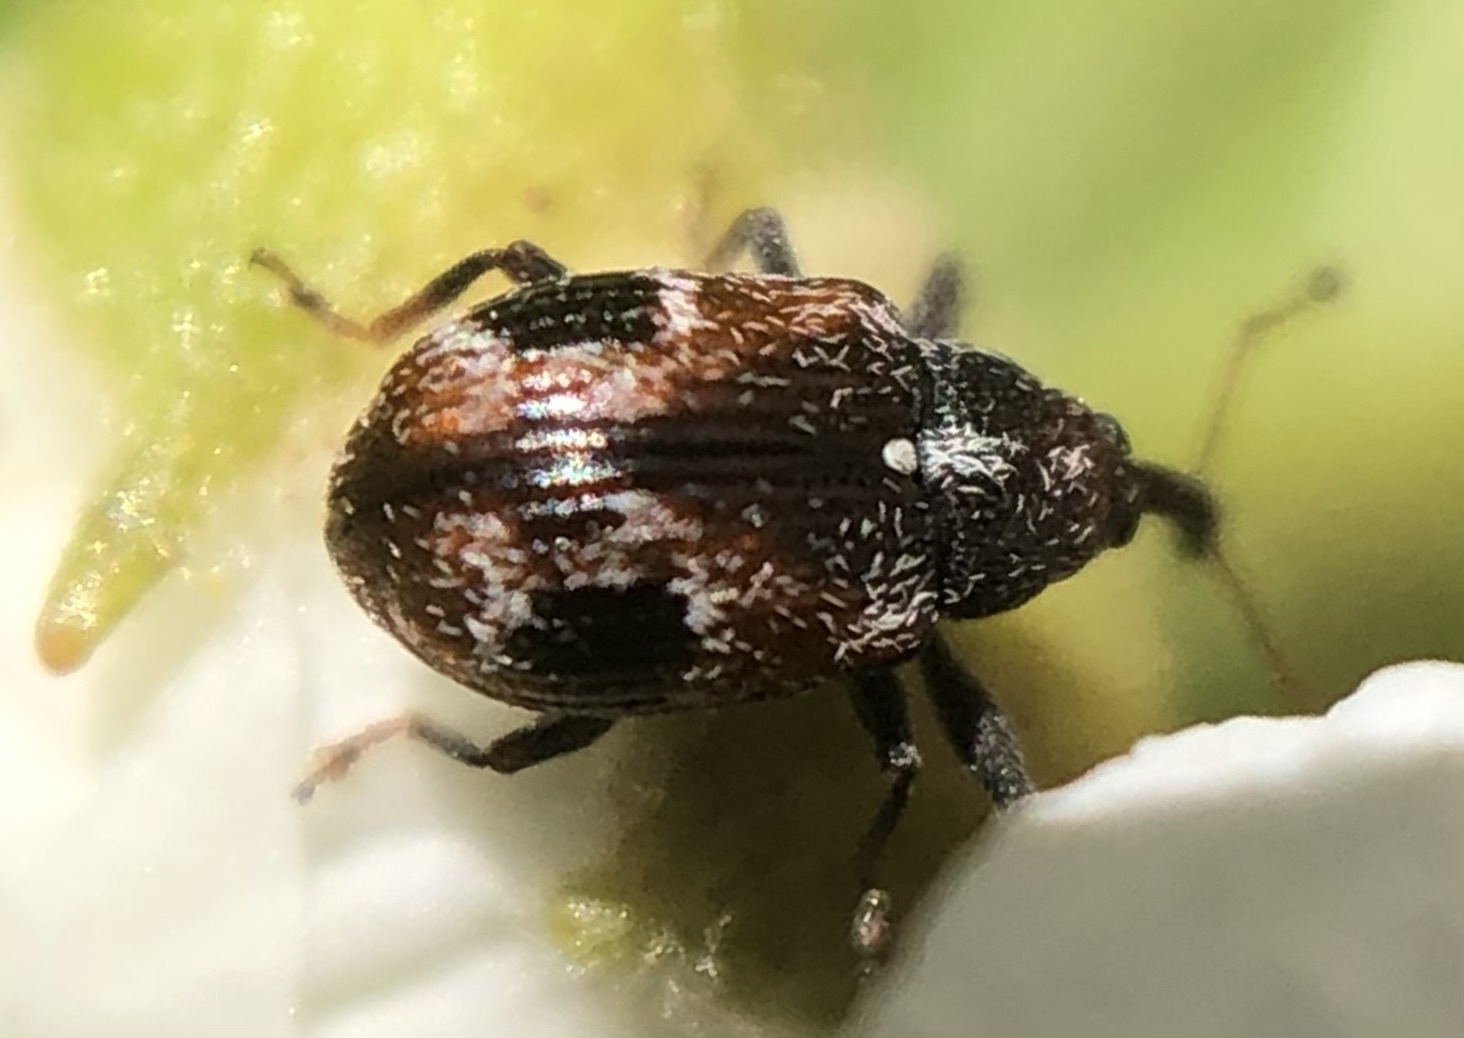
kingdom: Animalia
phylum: Arthropoda
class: Insecta
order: Coleoptera
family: Curculionidae
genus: Anthonomus
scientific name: Anthonomus signatus
